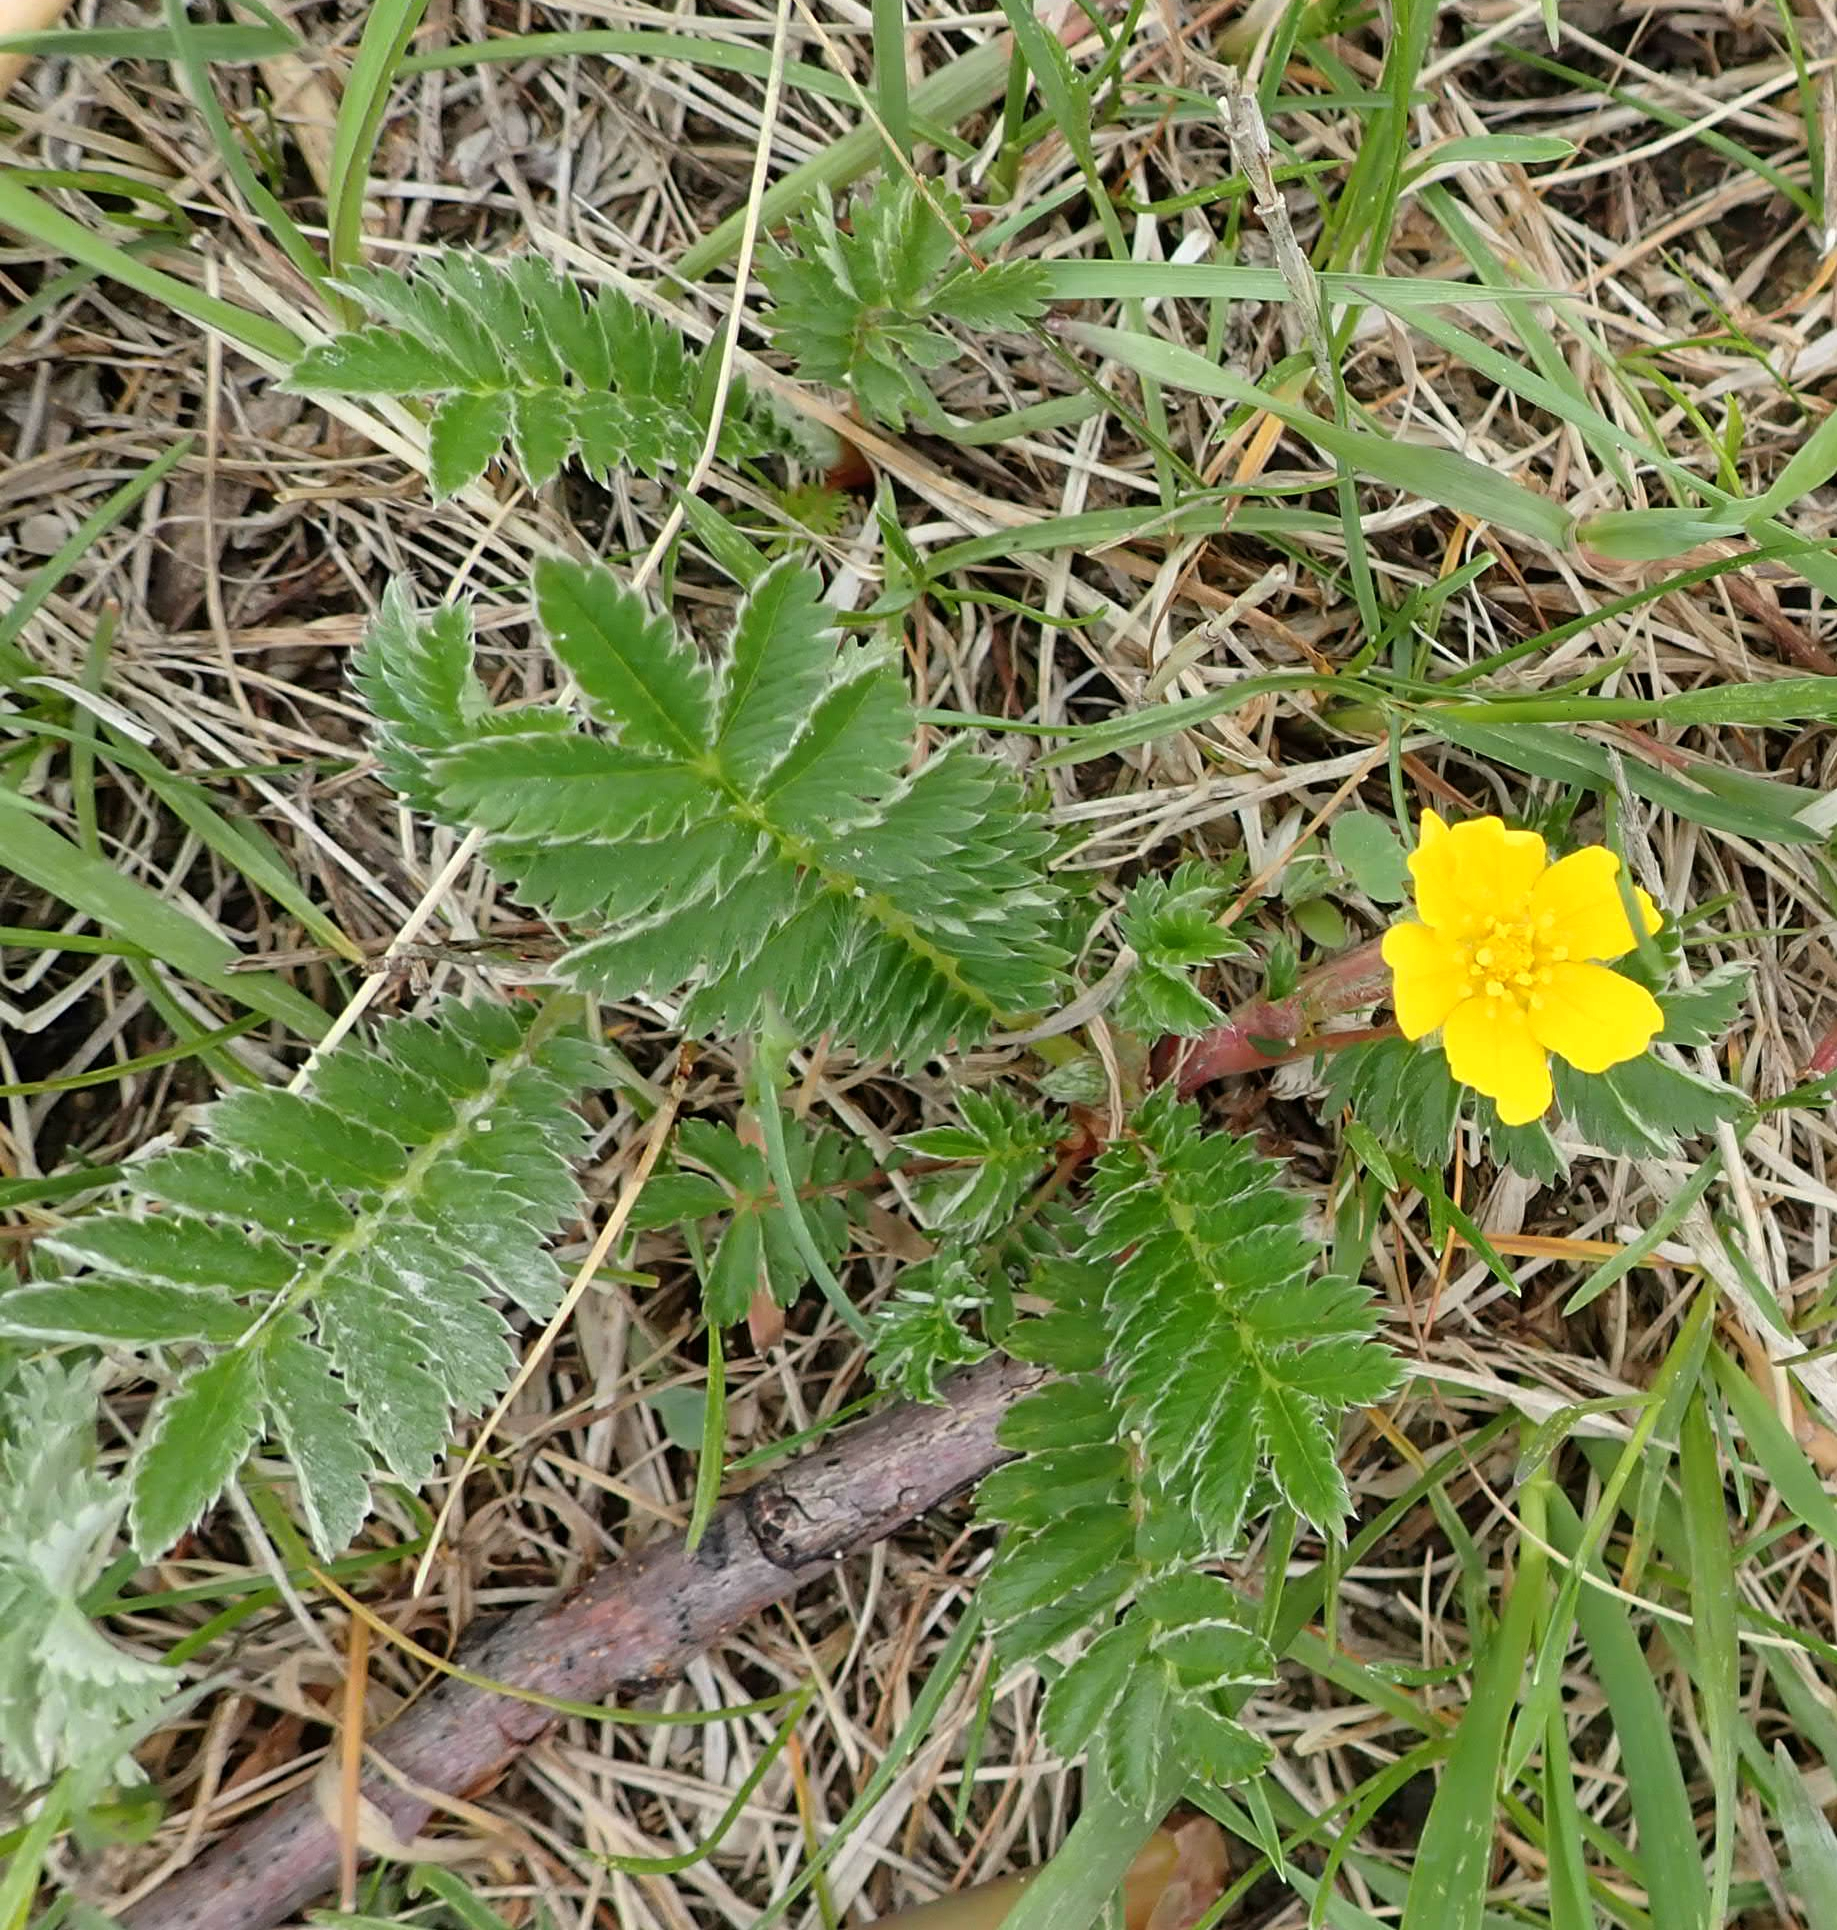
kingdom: Plantae
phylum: Tracheophyta
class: Magnoliopsida
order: Rosales
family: Rosaceae
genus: Argentina
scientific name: Argentina anserina
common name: Common silverweed
